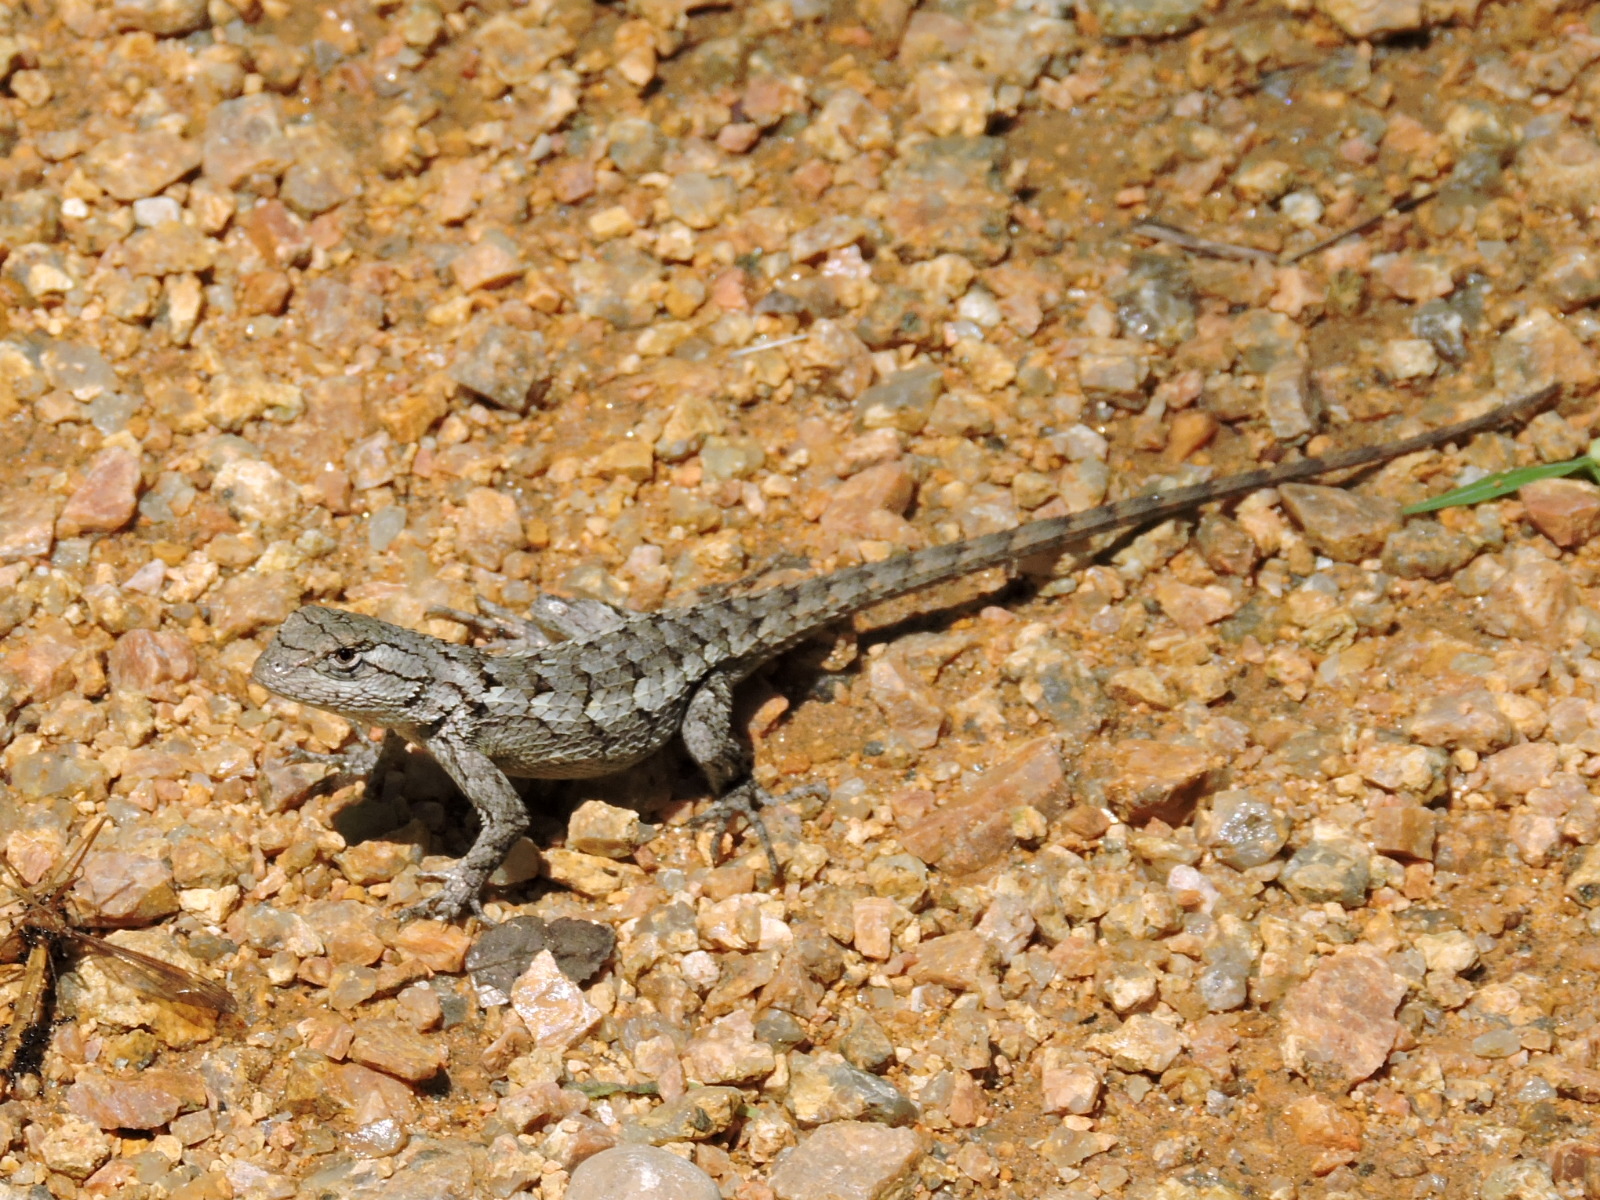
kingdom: Animalia
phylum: Chordata
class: Squamata
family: Phrynosomatidae
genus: Sceloporus
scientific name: Sceloporus olivaceus
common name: Texas spiny lizard
